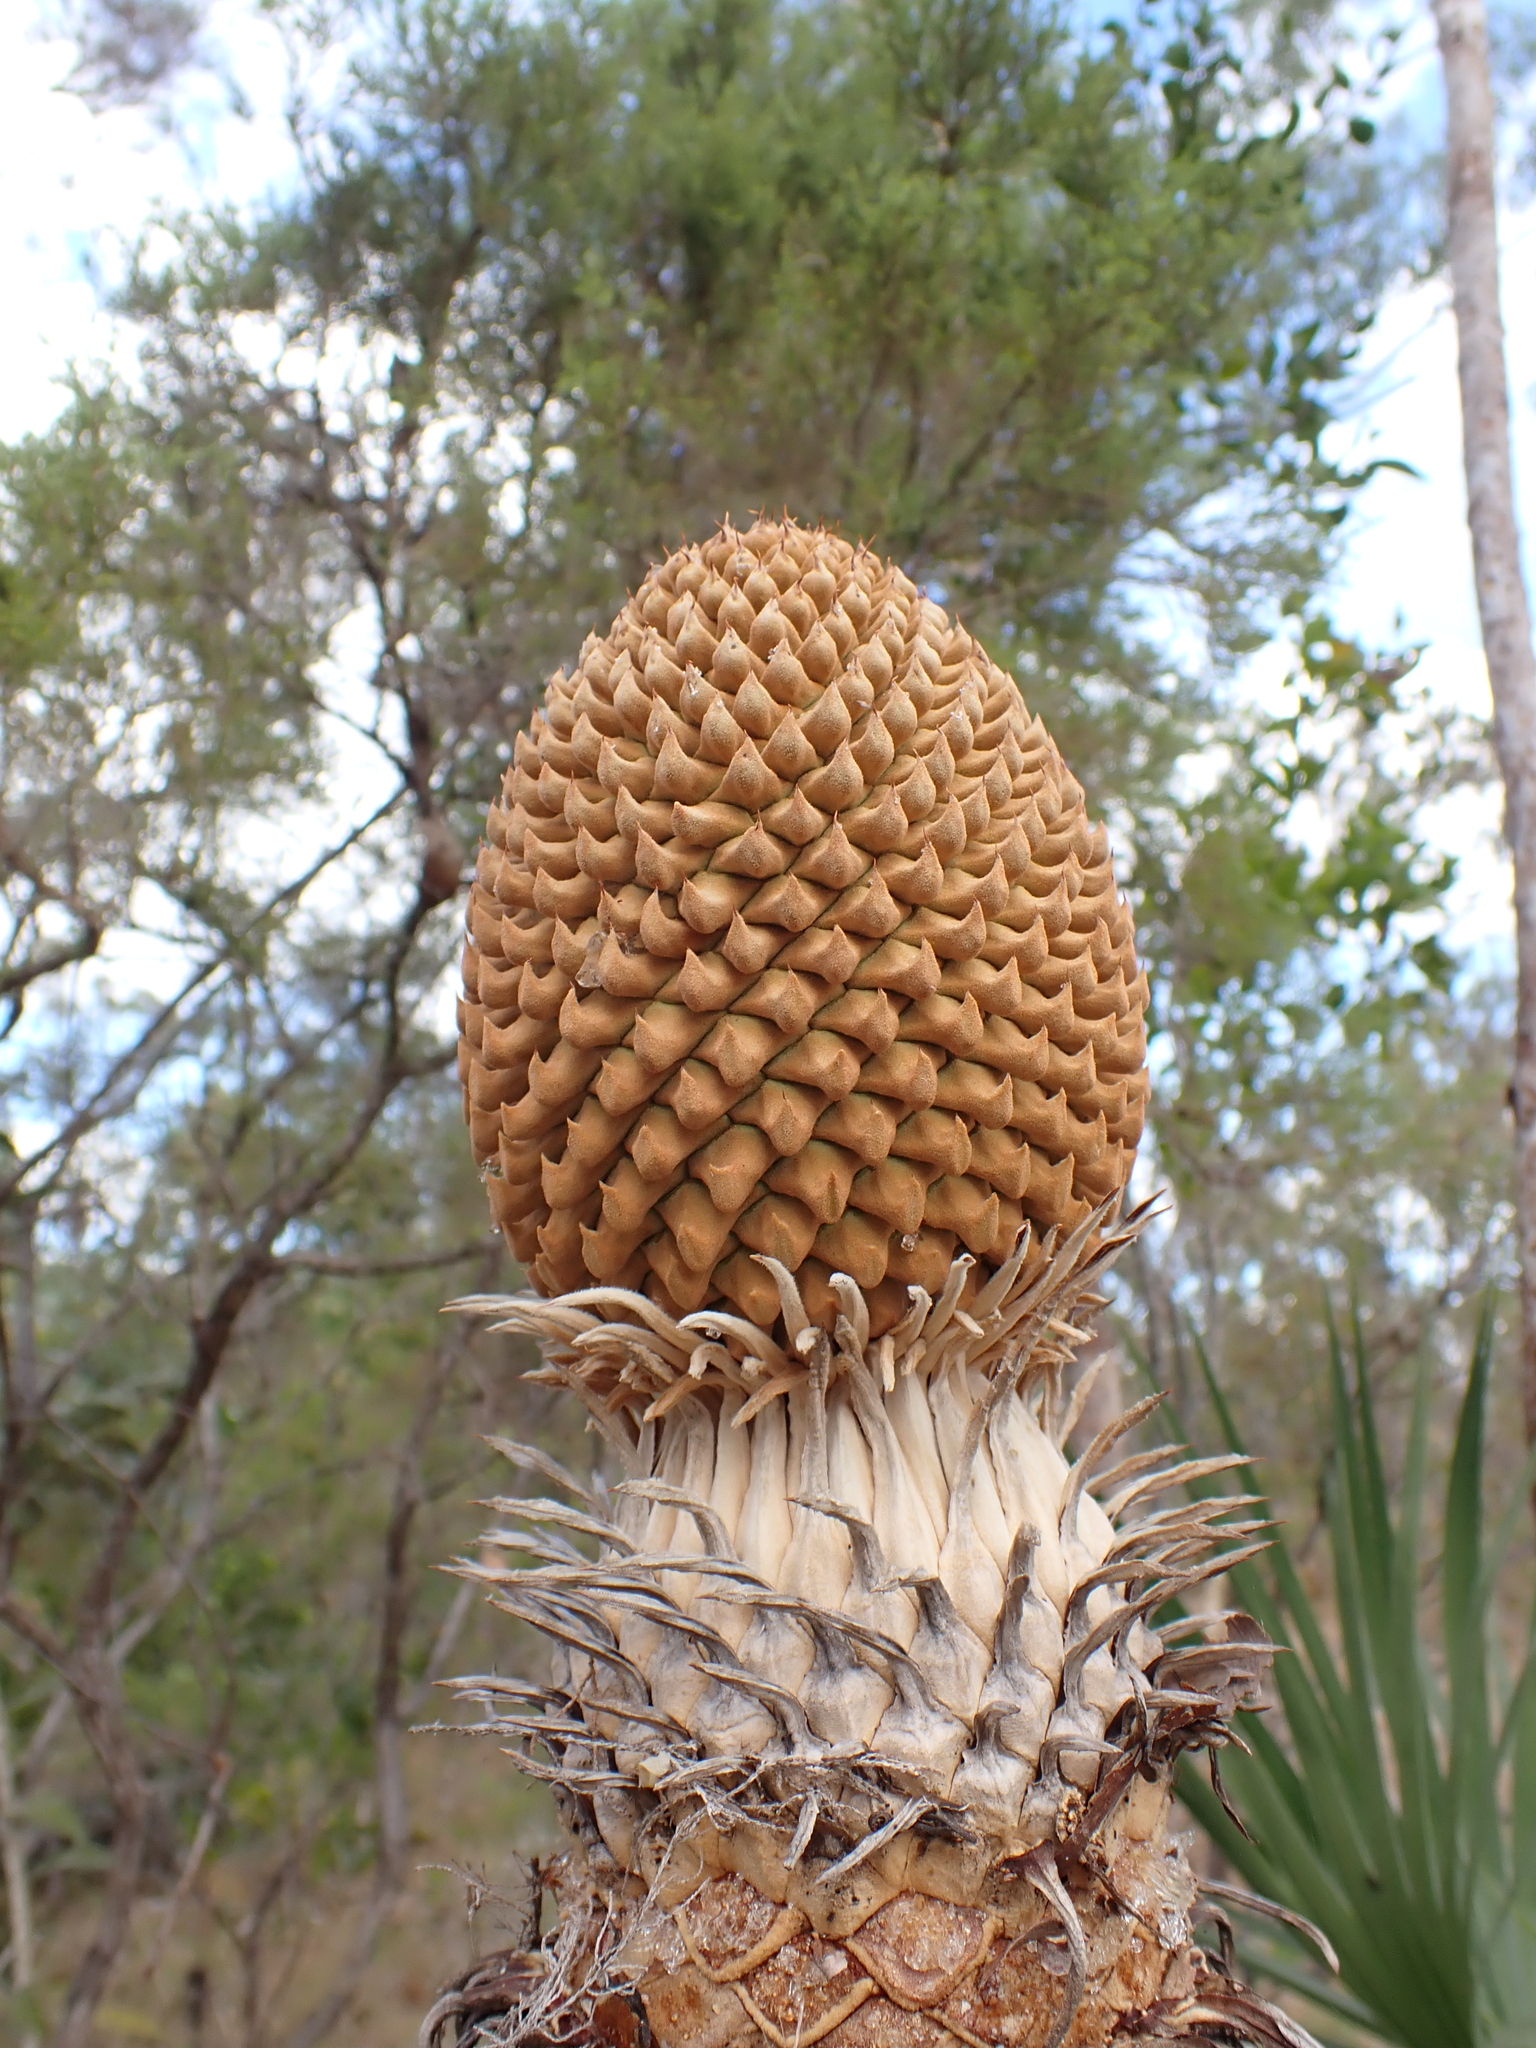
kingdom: Plantae
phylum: Tracheophyta
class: Cycadopsida
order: Cycadales
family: Cycadaceae
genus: Cycas
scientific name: Cycas armstrongii
